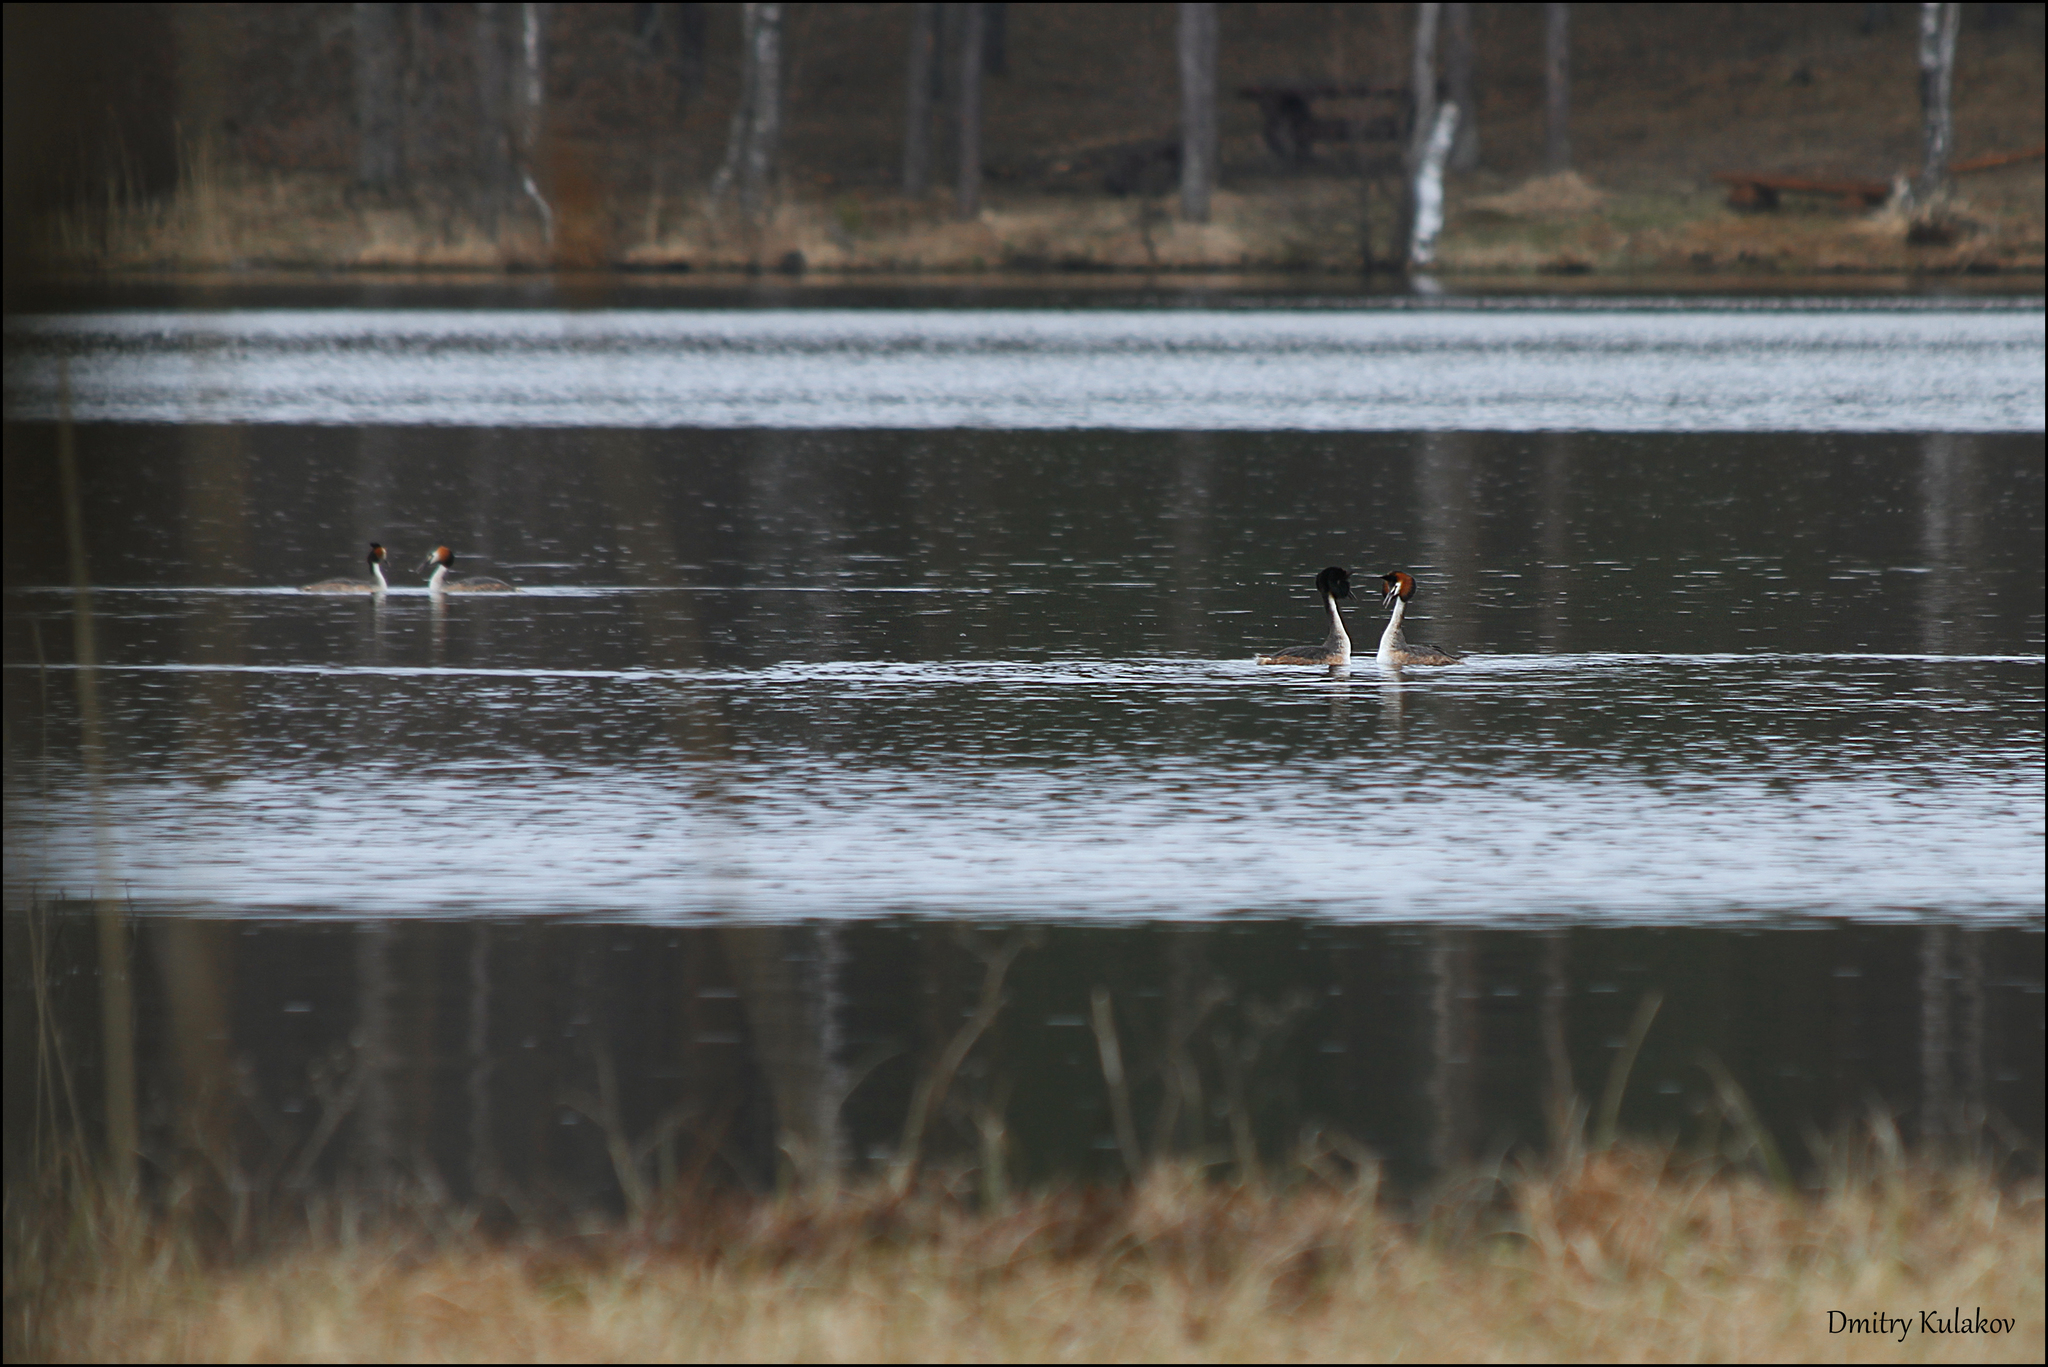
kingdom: Animalia
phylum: Chordata
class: Aves
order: Podicipediformes
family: Podicipedidae
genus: Podiceps
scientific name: Podiceps cristatus
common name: Great crested grebe
